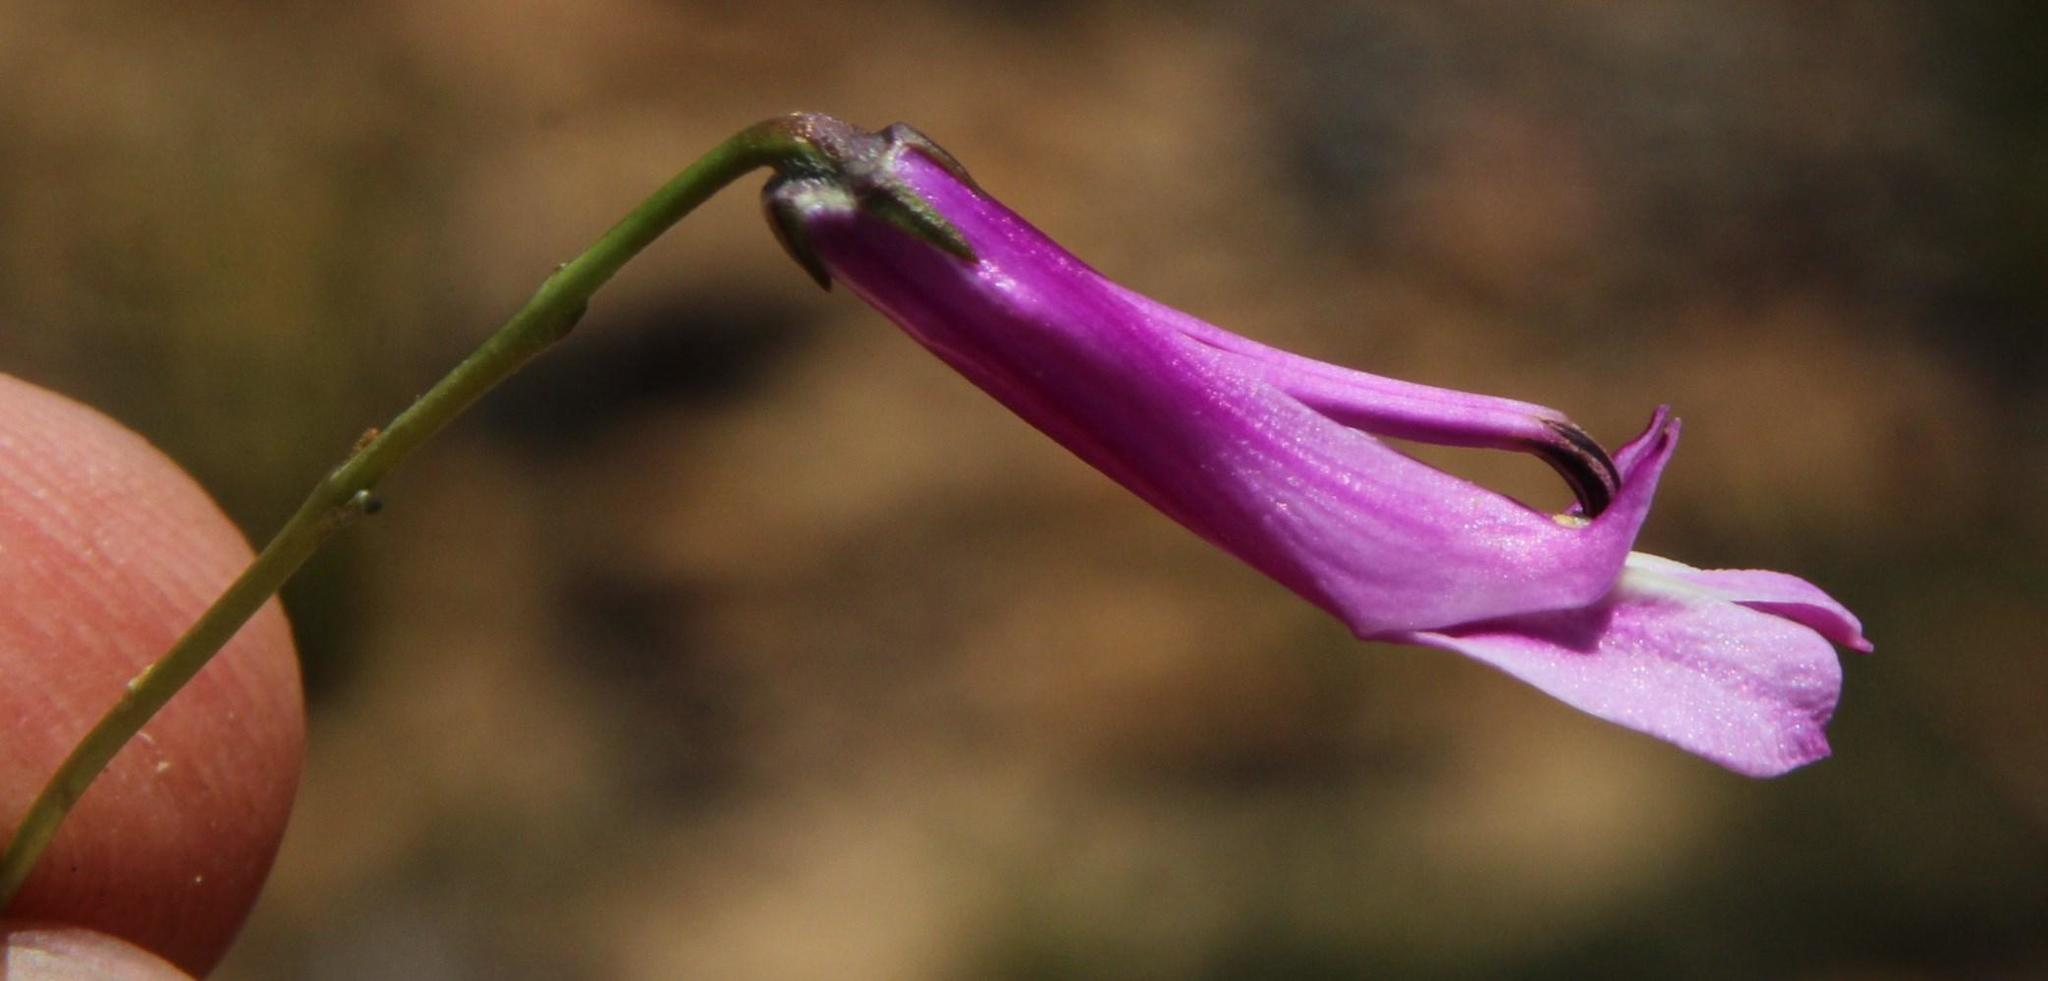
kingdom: Plantae
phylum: Tracheophyta
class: Magnoliopsida
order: Asterales
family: Campanulaceae
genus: Lobelia
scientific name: Lobelia coronopifolia
